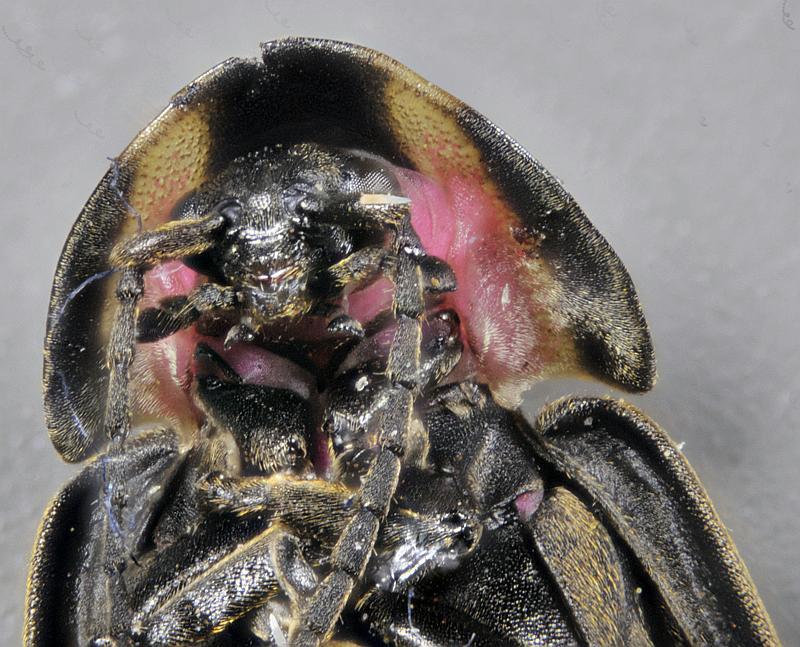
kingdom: Animalia
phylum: Arthropoda
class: Insecta
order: Coleoptera
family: Lampyridae
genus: Photinus
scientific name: Photinus corrusca
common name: Winter firefly
